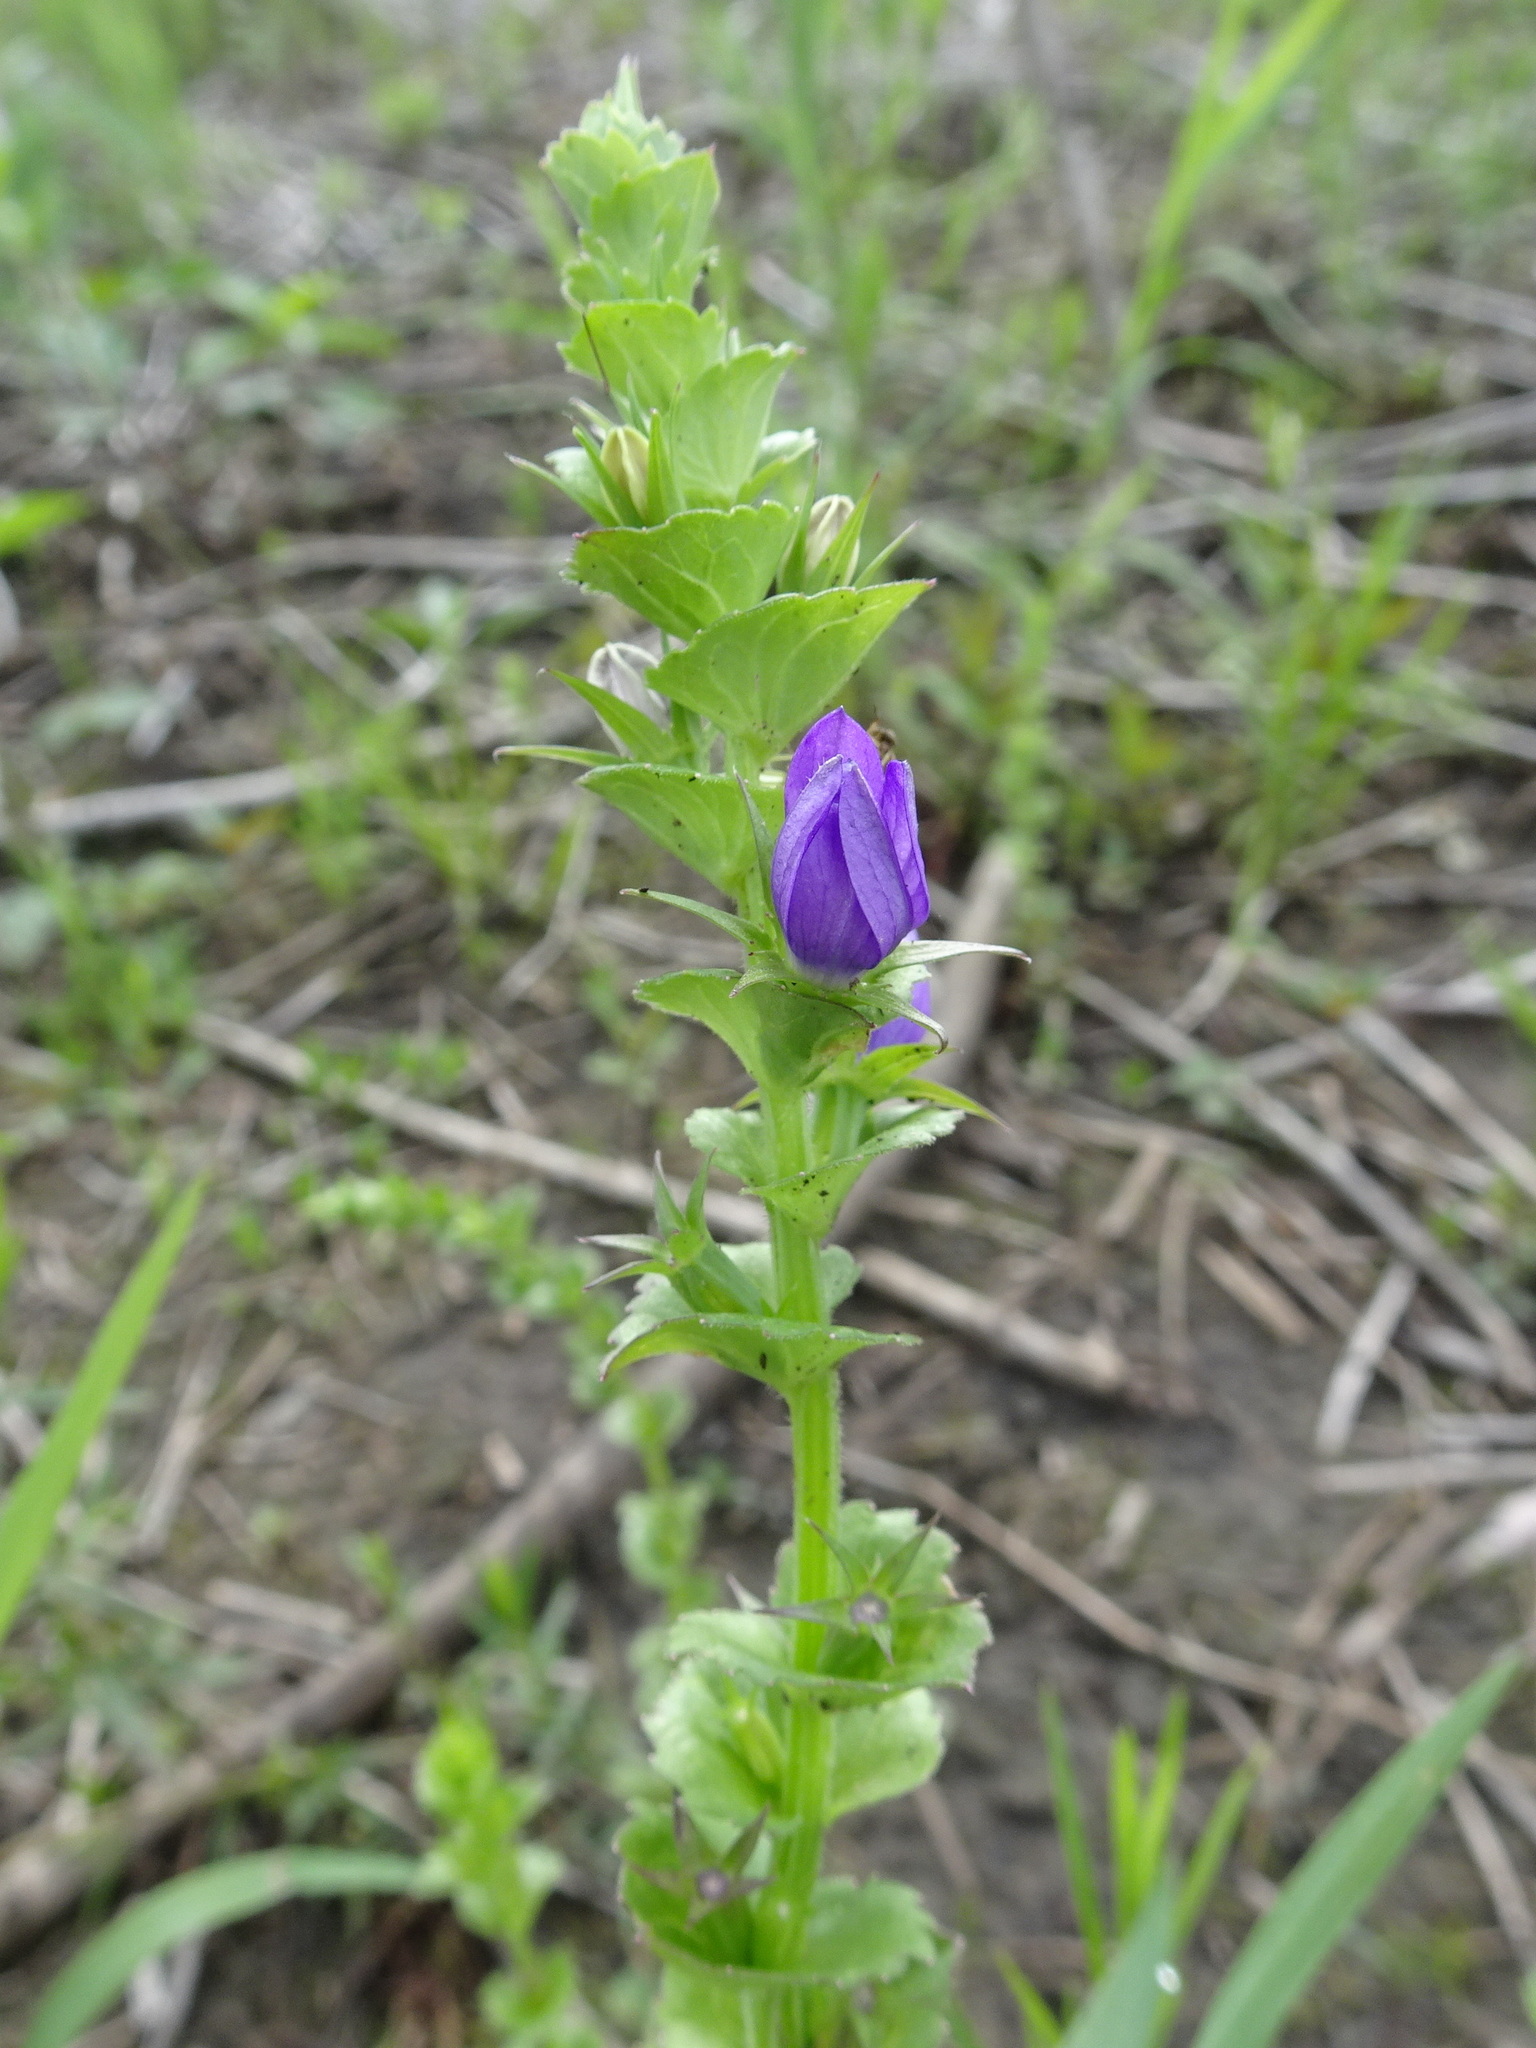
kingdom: Plantae
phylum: Tracheophyta
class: Magnoliopsida
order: Asterales
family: Campanulaceae
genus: Triodanis
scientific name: Triodanis perfoliata
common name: Clasping venus' looking-glass
